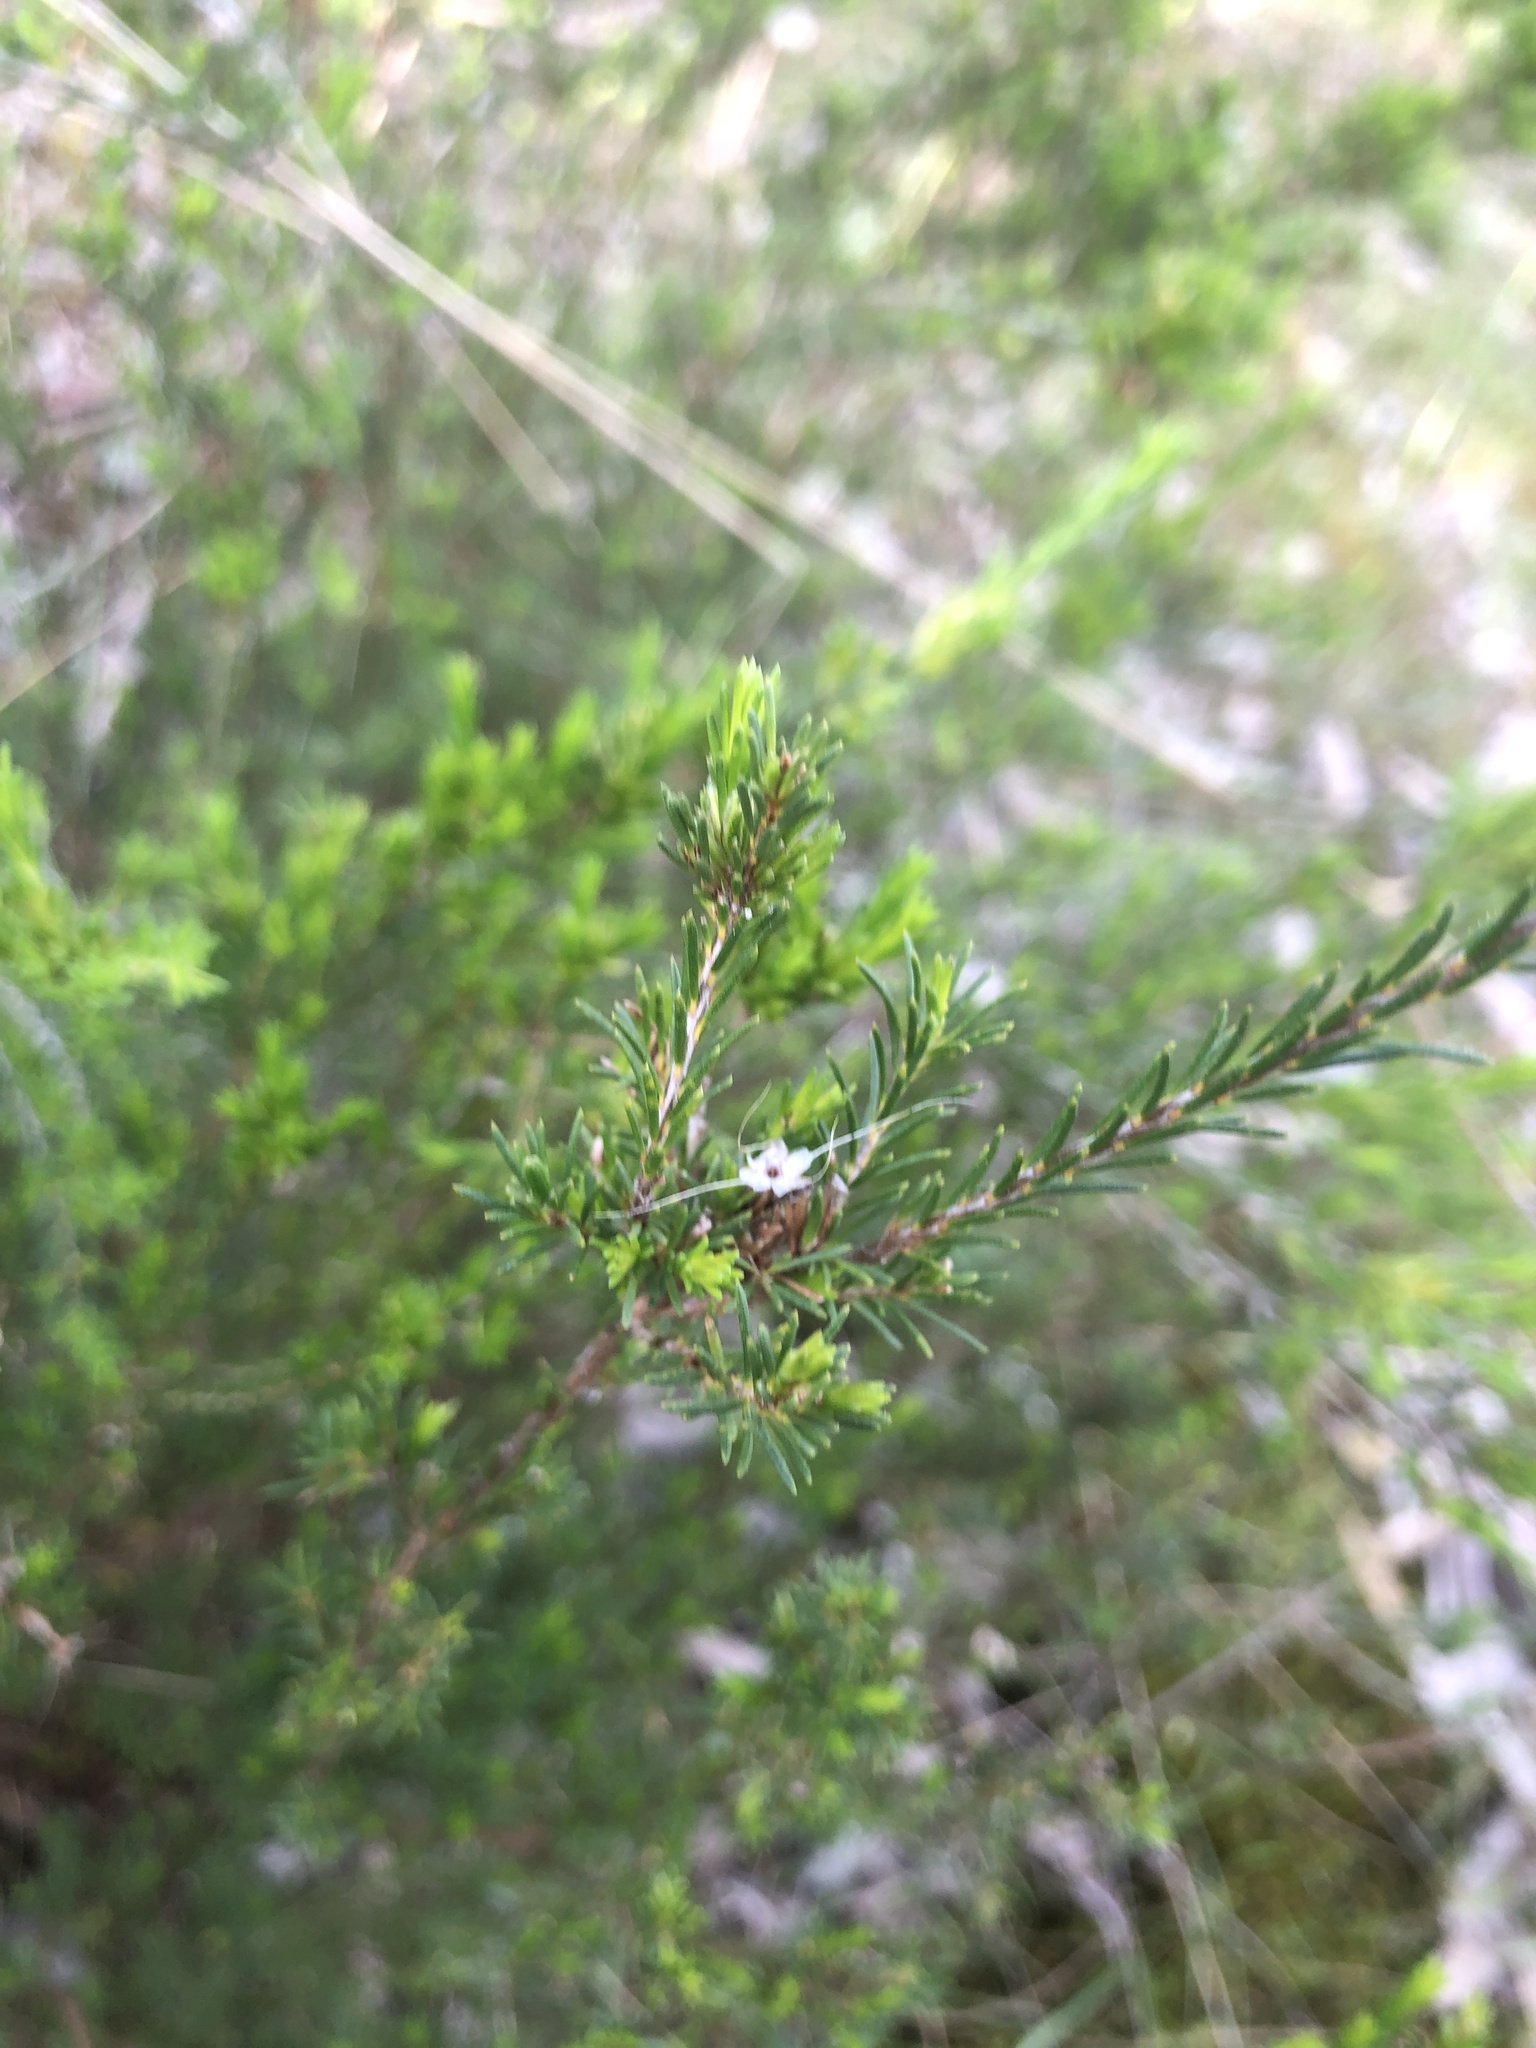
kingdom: Plantae
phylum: Tracheophyta
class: Magnoliopsida
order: Myrtales
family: Myrtaceae
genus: Calytrix
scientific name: Calytrix tetragona
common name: Common fringe myrtle
